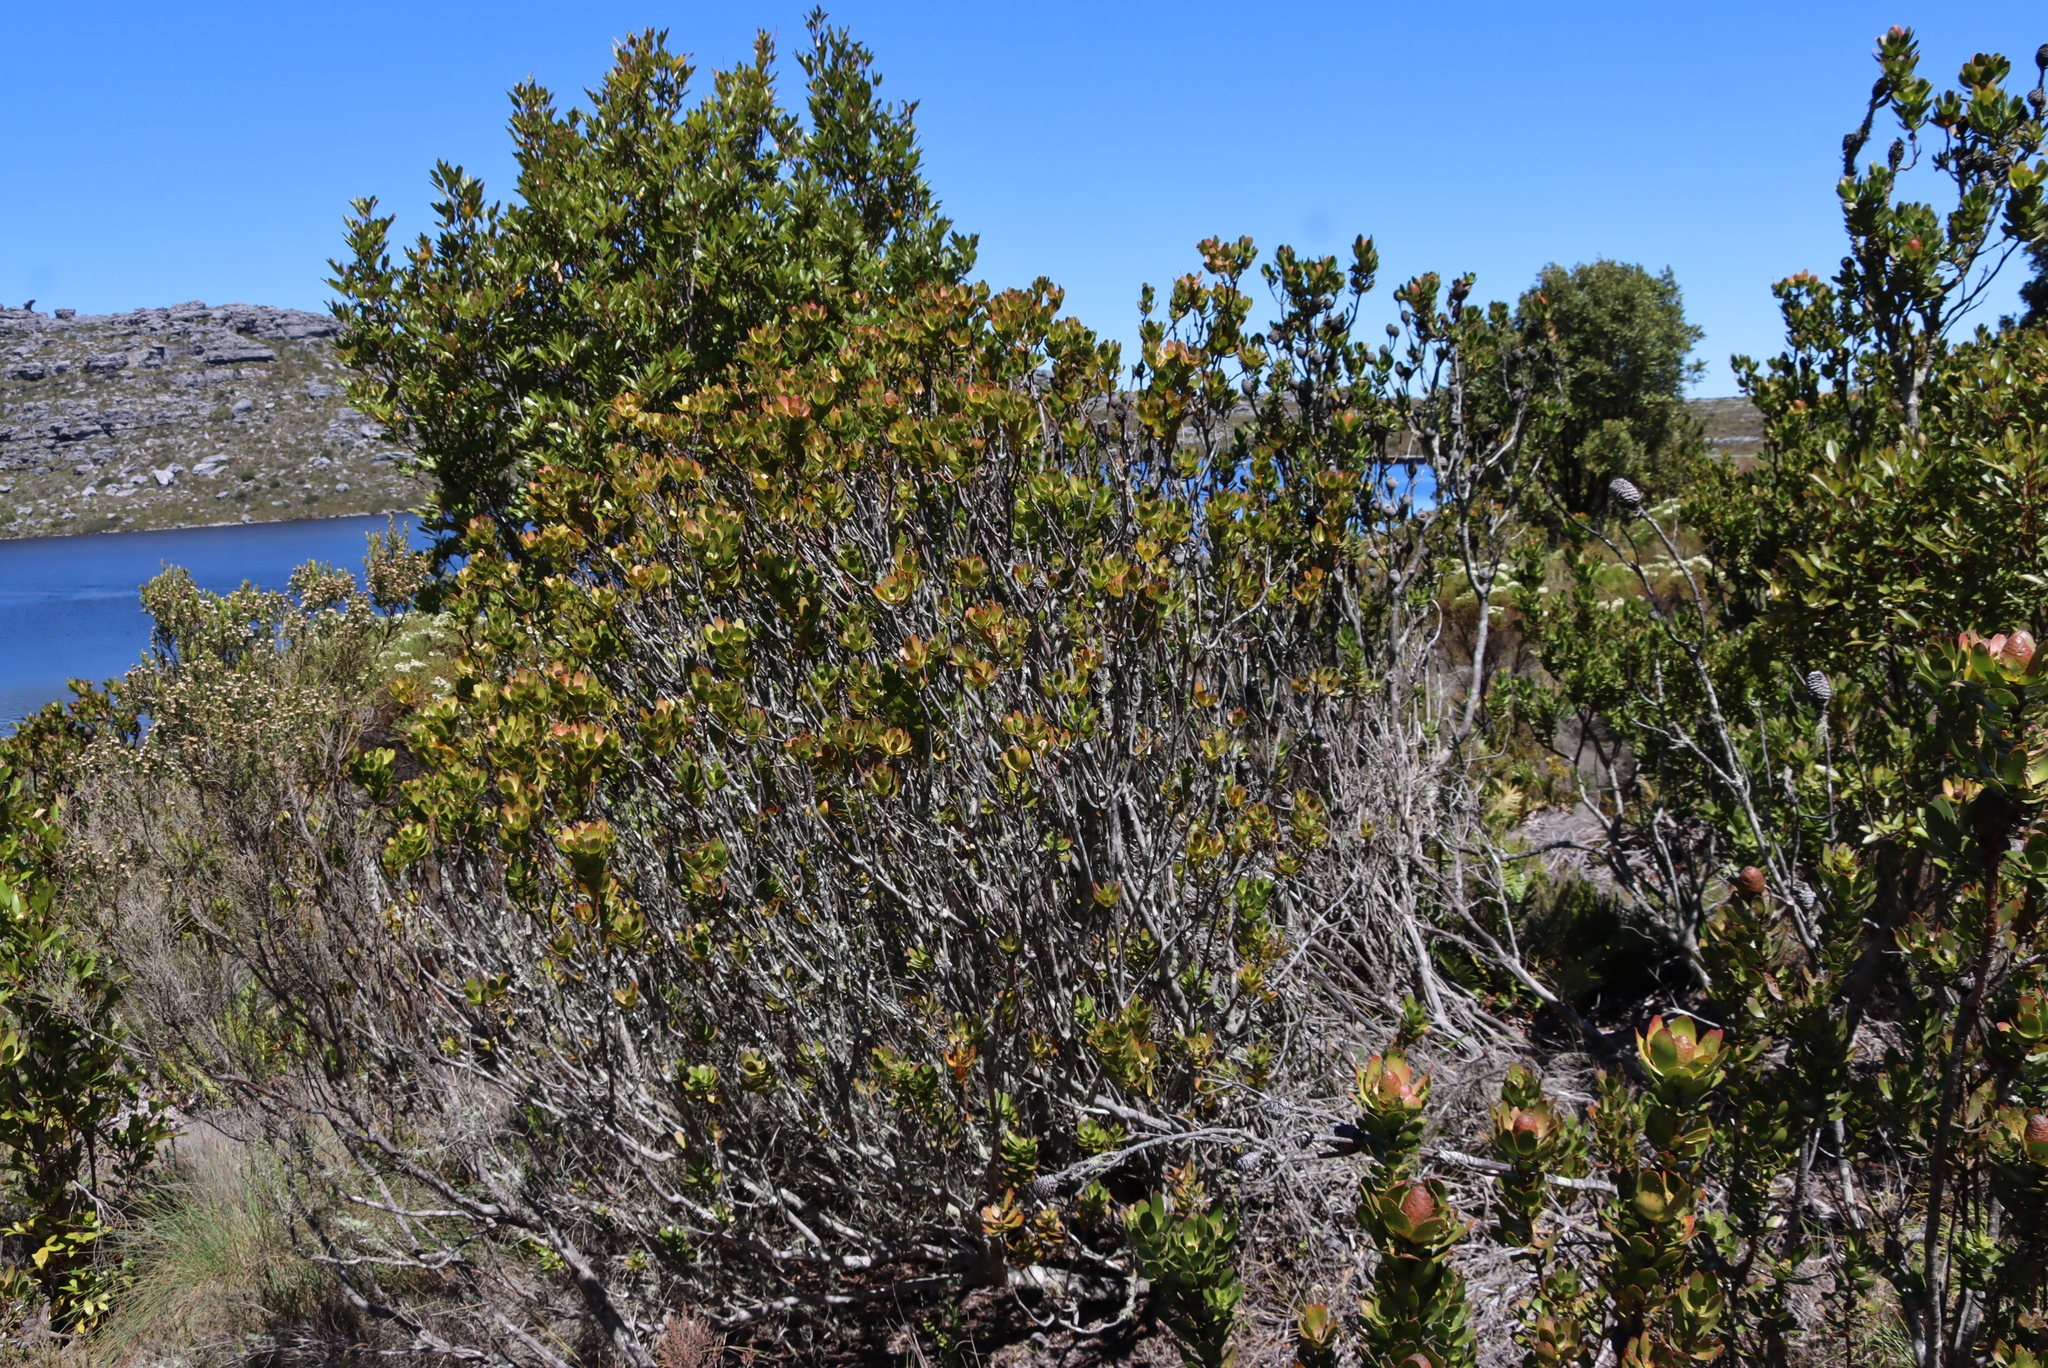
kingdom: Plantae
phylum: Tracheophyta
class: Magnoliopsida
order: Proteales
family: Proteaceae
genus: Leucadendron
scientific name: Leucadendron strobilinum
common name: Mountain rose
